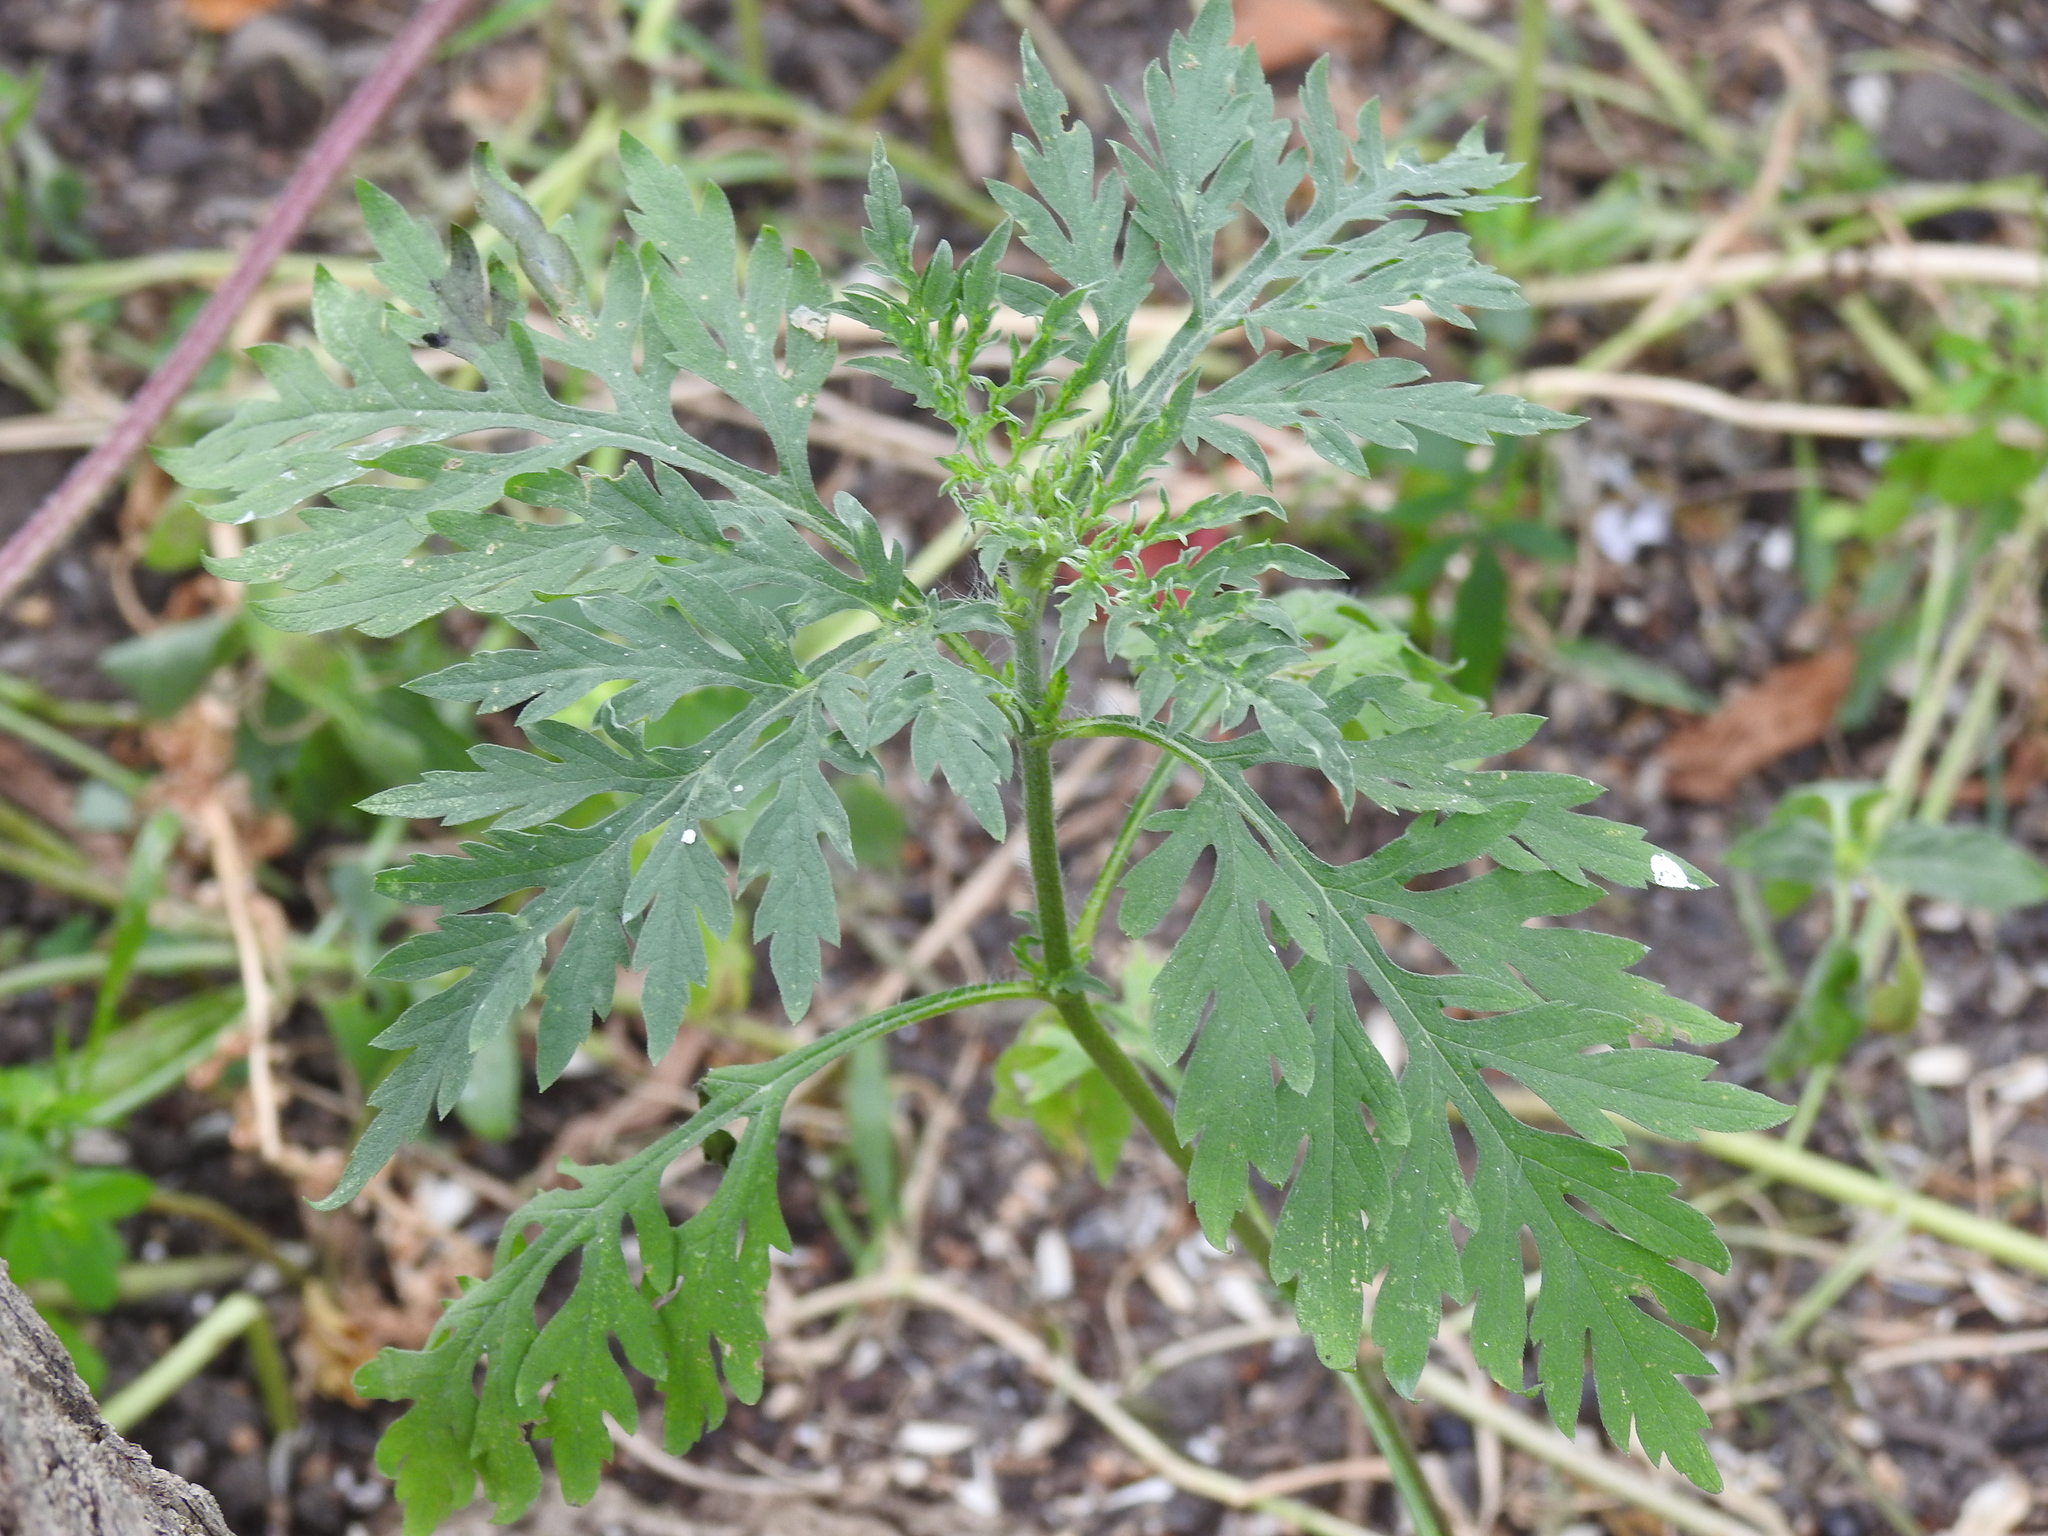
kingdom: Plantae
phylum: Tracheophyta
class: Magnoliopsida
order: Asterales
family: Asteraceae
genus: Ambrosia
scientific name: Ambrosia artemisiifolia
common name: Annual ragweed
